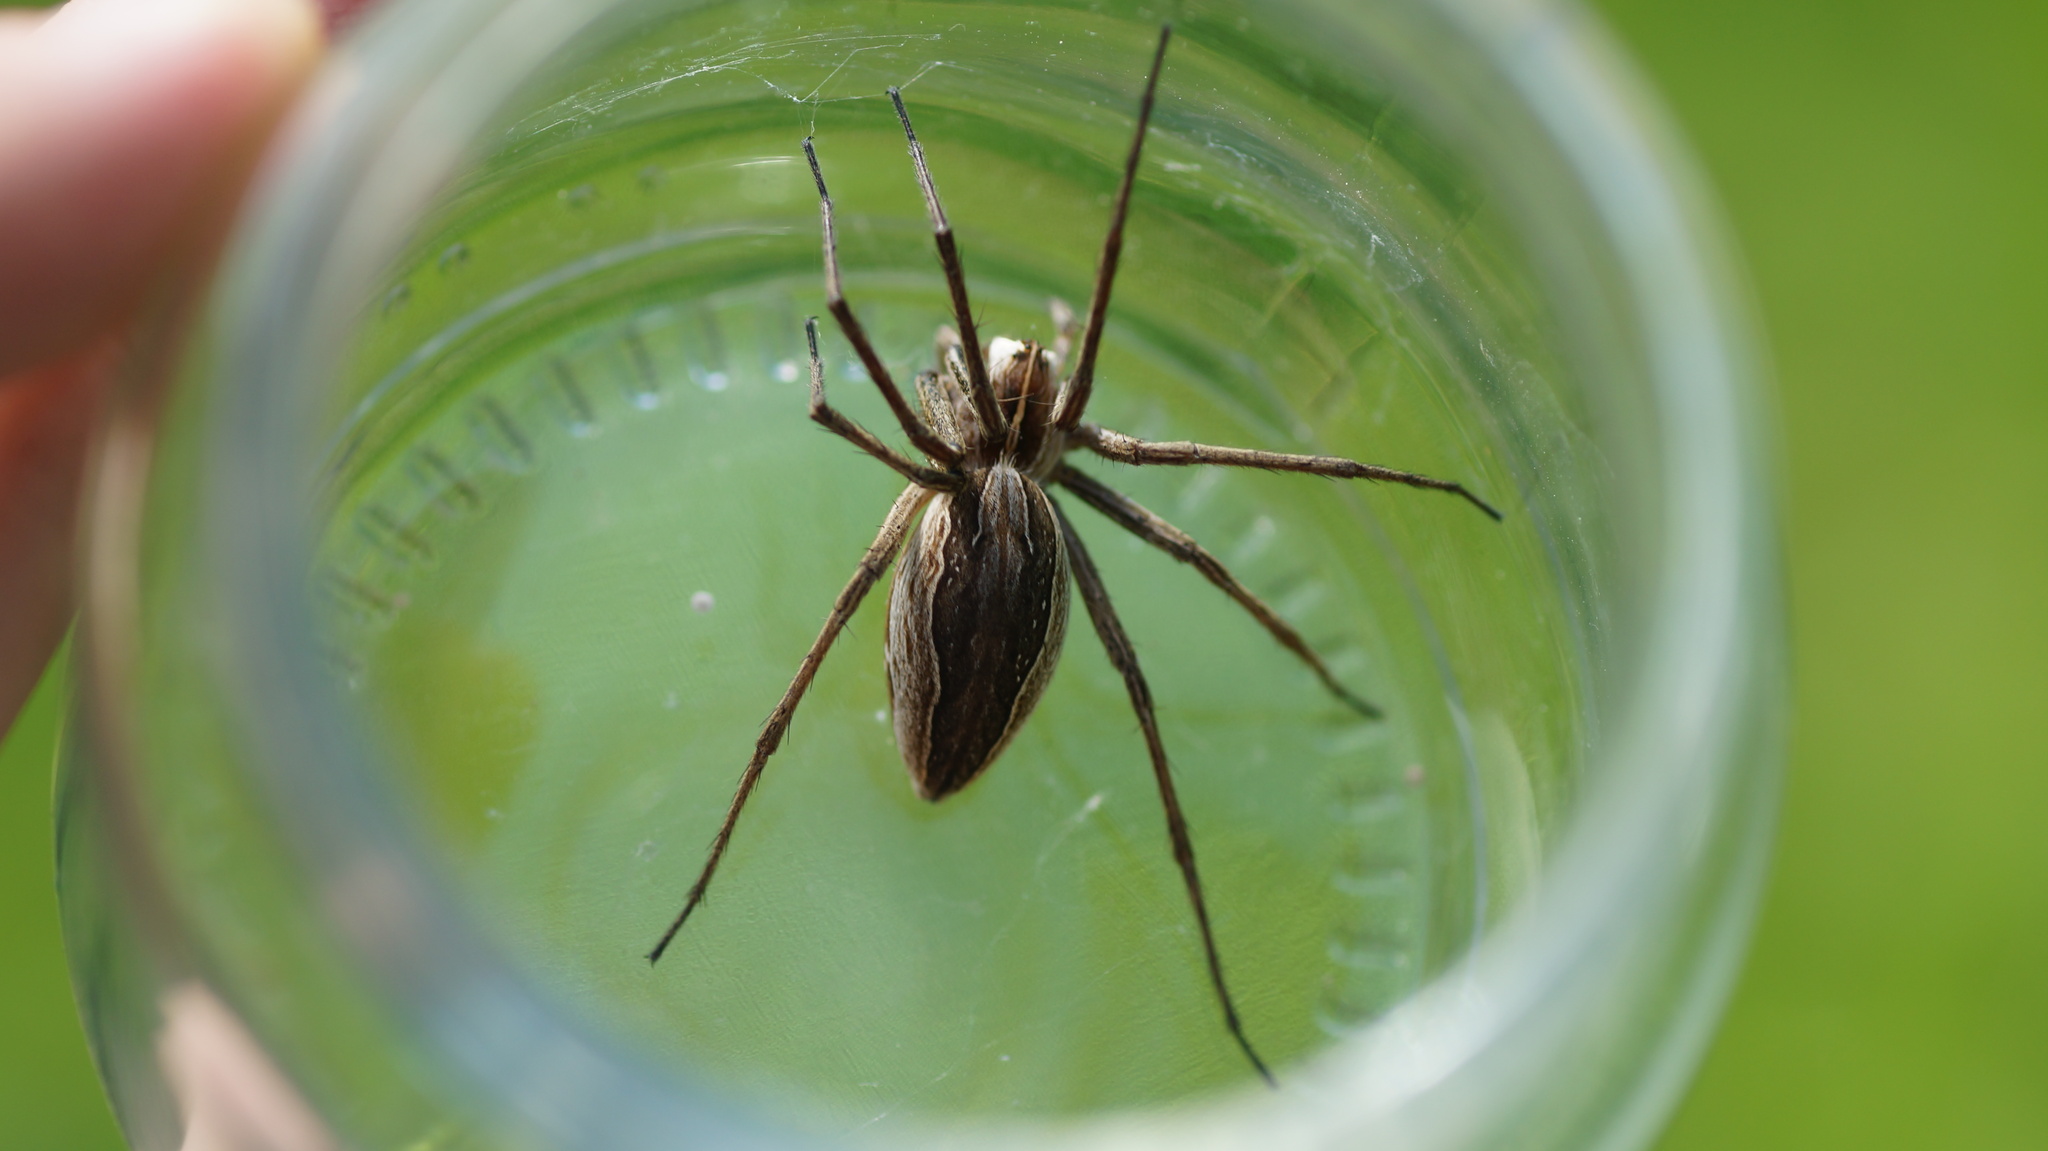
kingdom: Animalia
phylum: Arthropoda
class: Arachnida
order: Araneae
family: Pisauridae
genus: Pisaura
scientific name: Pisaura mirabilis
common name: Tent spider
